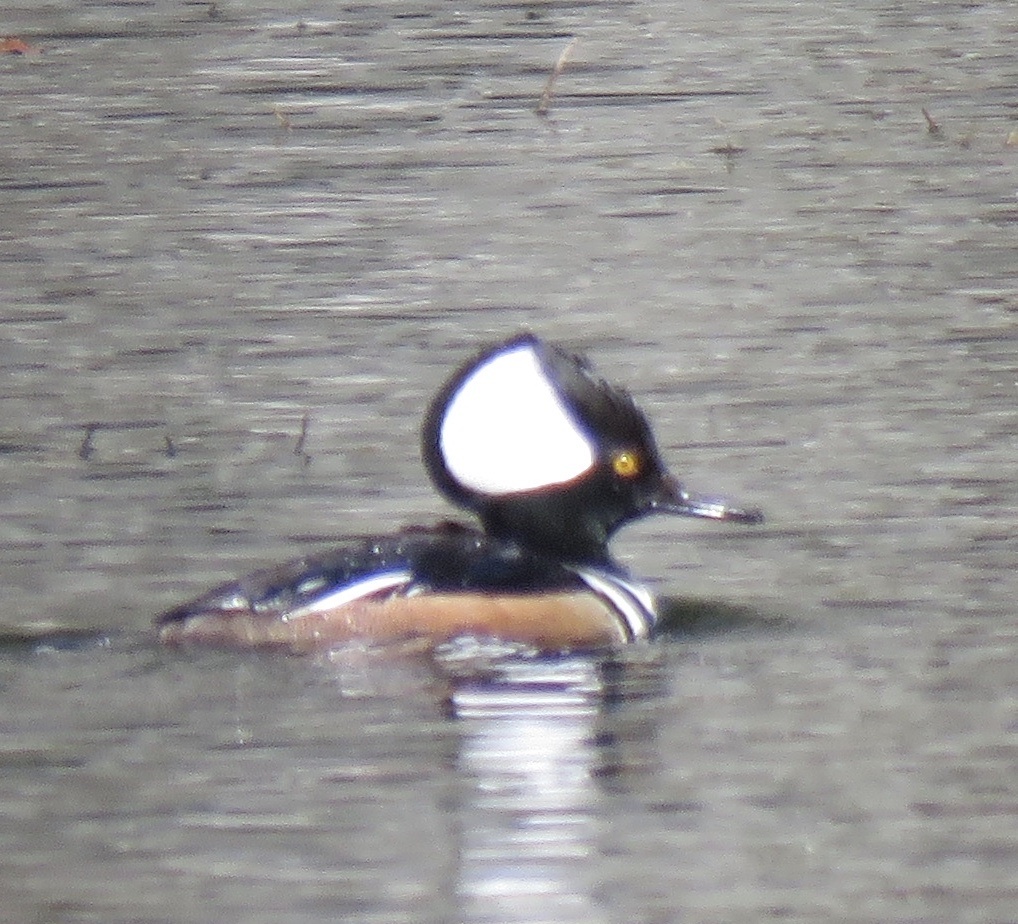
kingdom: Animalia
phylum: Chordata
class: Aves
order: Anseriformes
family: Anatidae
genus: Lophodytes
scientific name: Lophodytes cucullatus
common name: Hooded merganser
